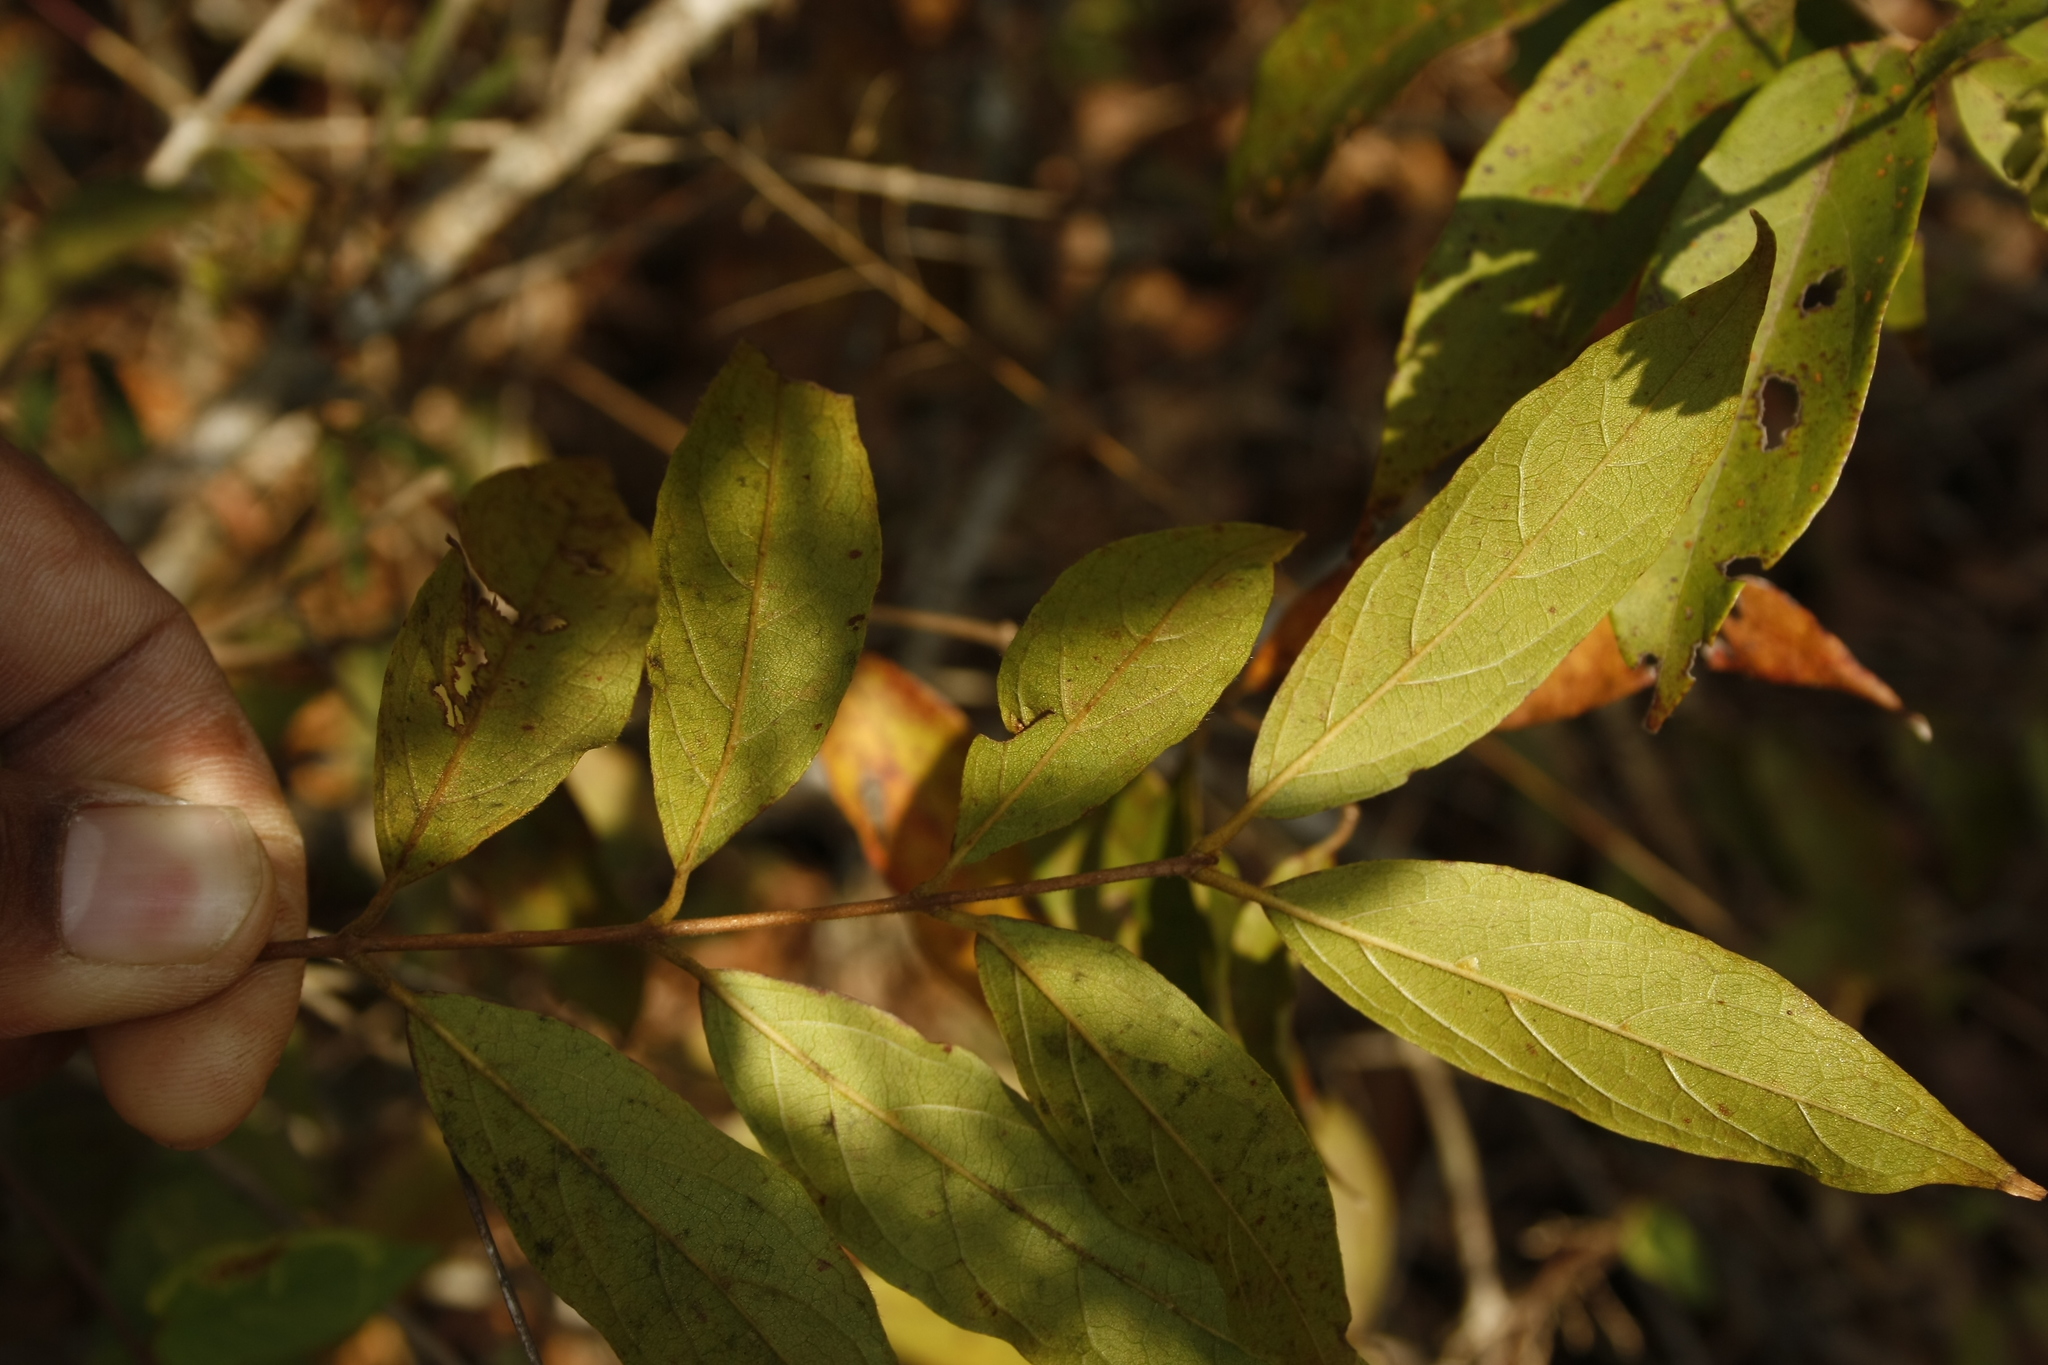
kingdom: Plantae
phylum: Tracheophyta
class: Magnoliopsida
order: Myrtales
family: Combretaceae
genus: Getonia
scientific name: Getonia floribunda
